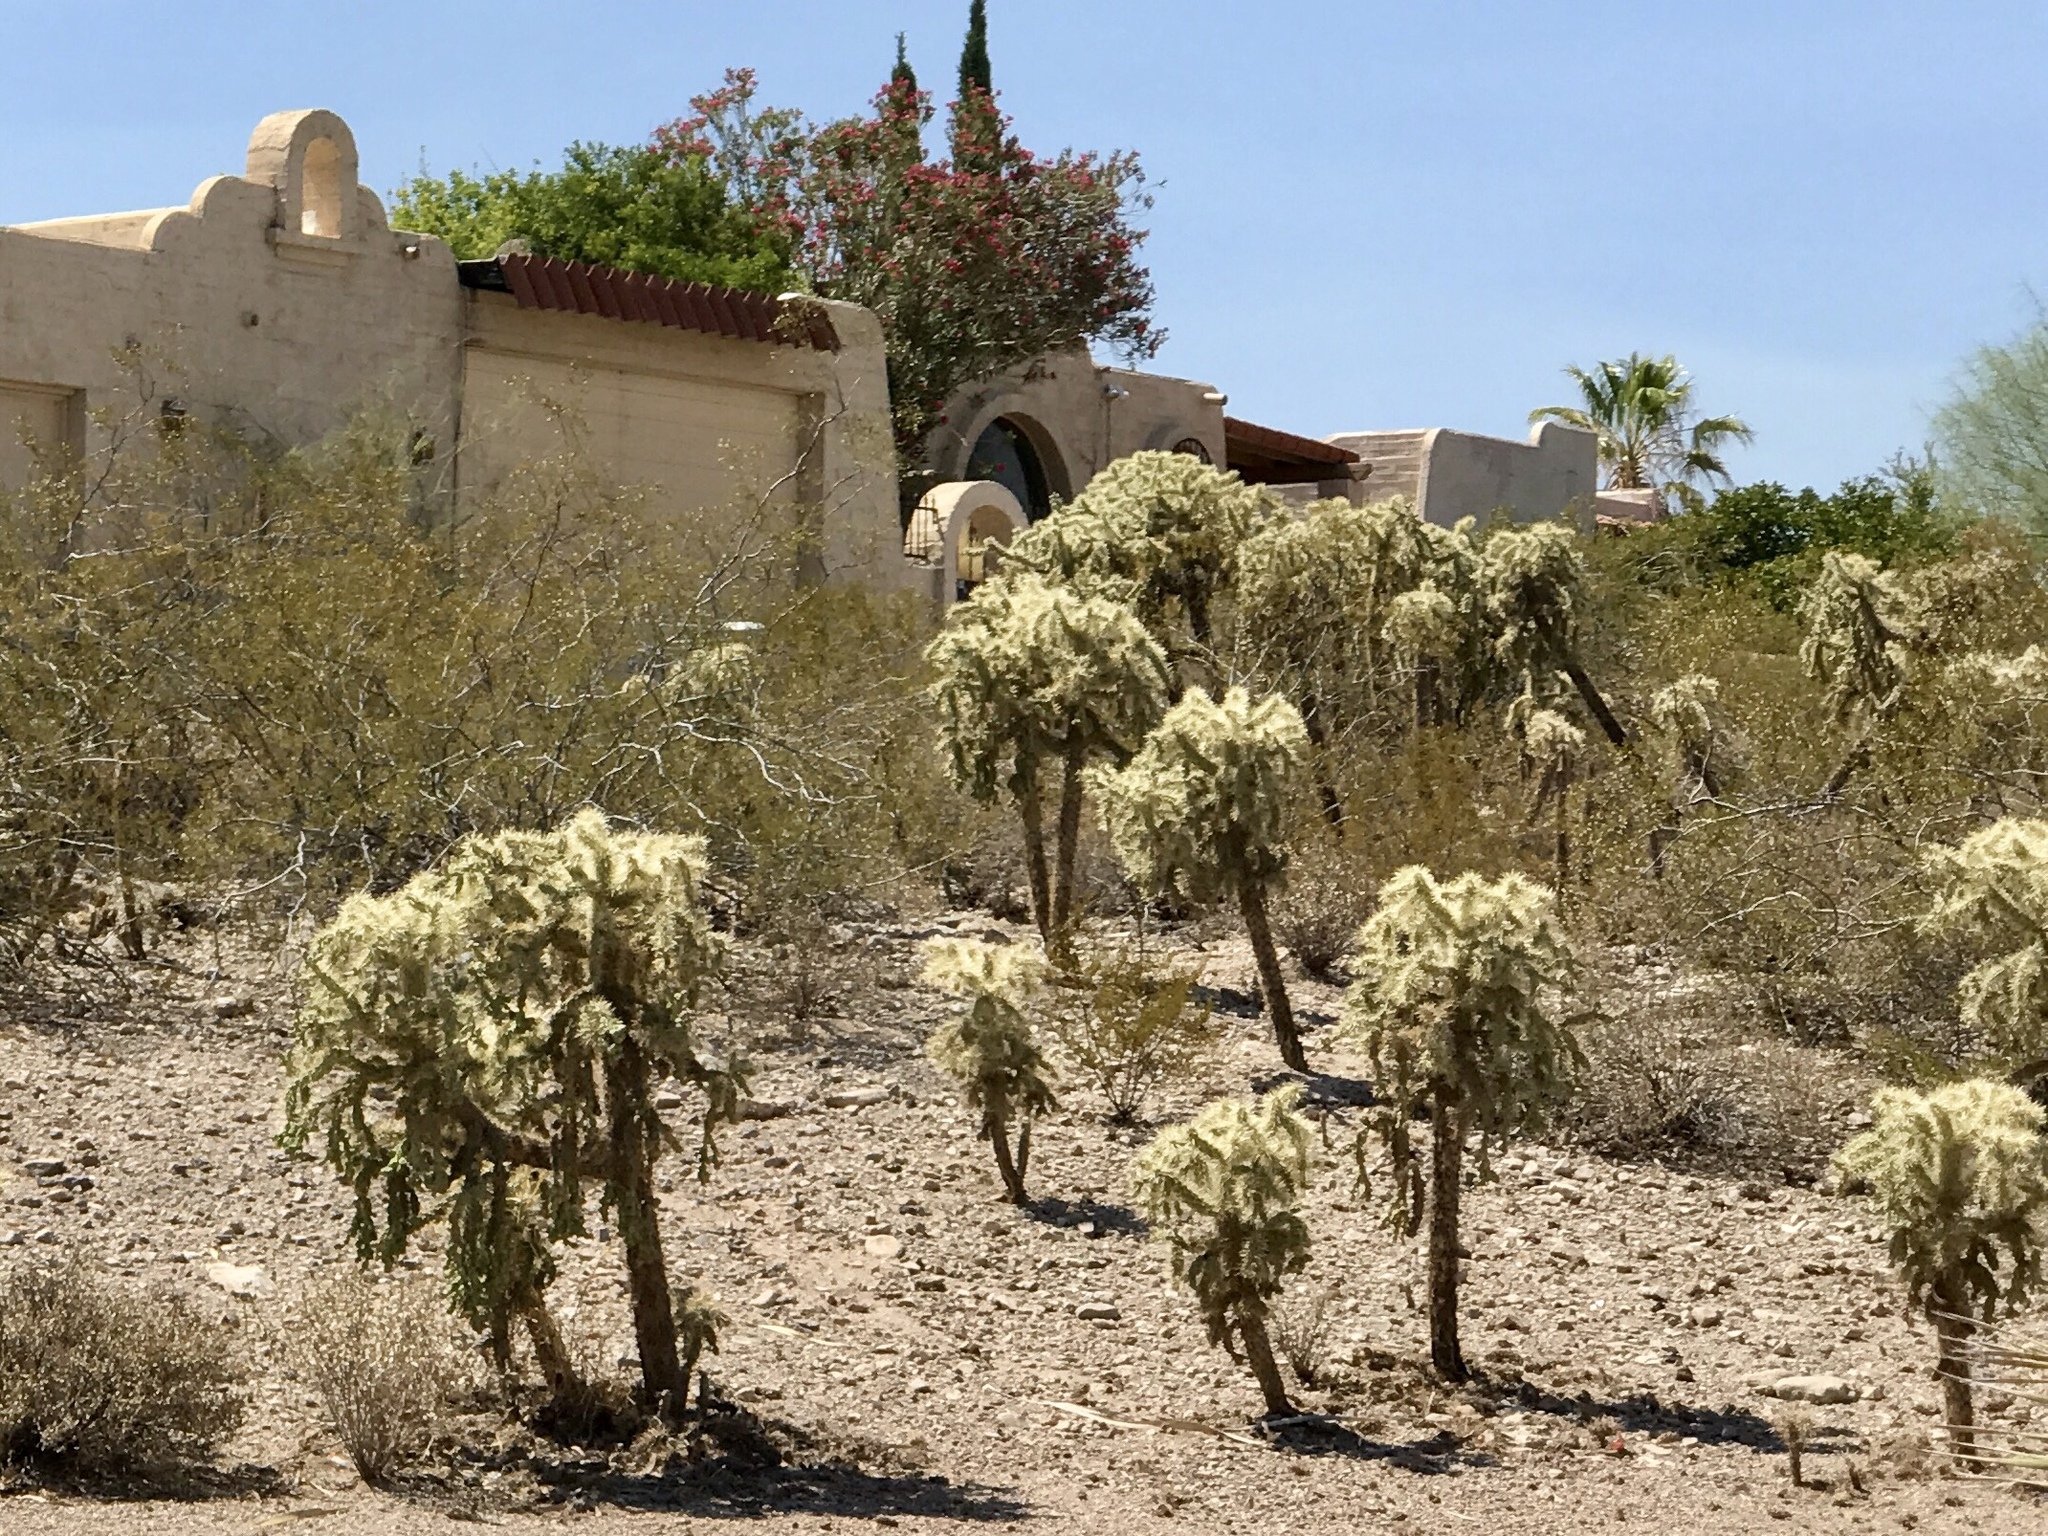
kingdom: Plantae
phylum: Tracheophyta
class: Magnoliopsida
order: Caryophyllales
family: Cactaceae
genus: Cylindropuntia
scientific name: Cylindropuntia fulgida
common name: Jumping cholla
